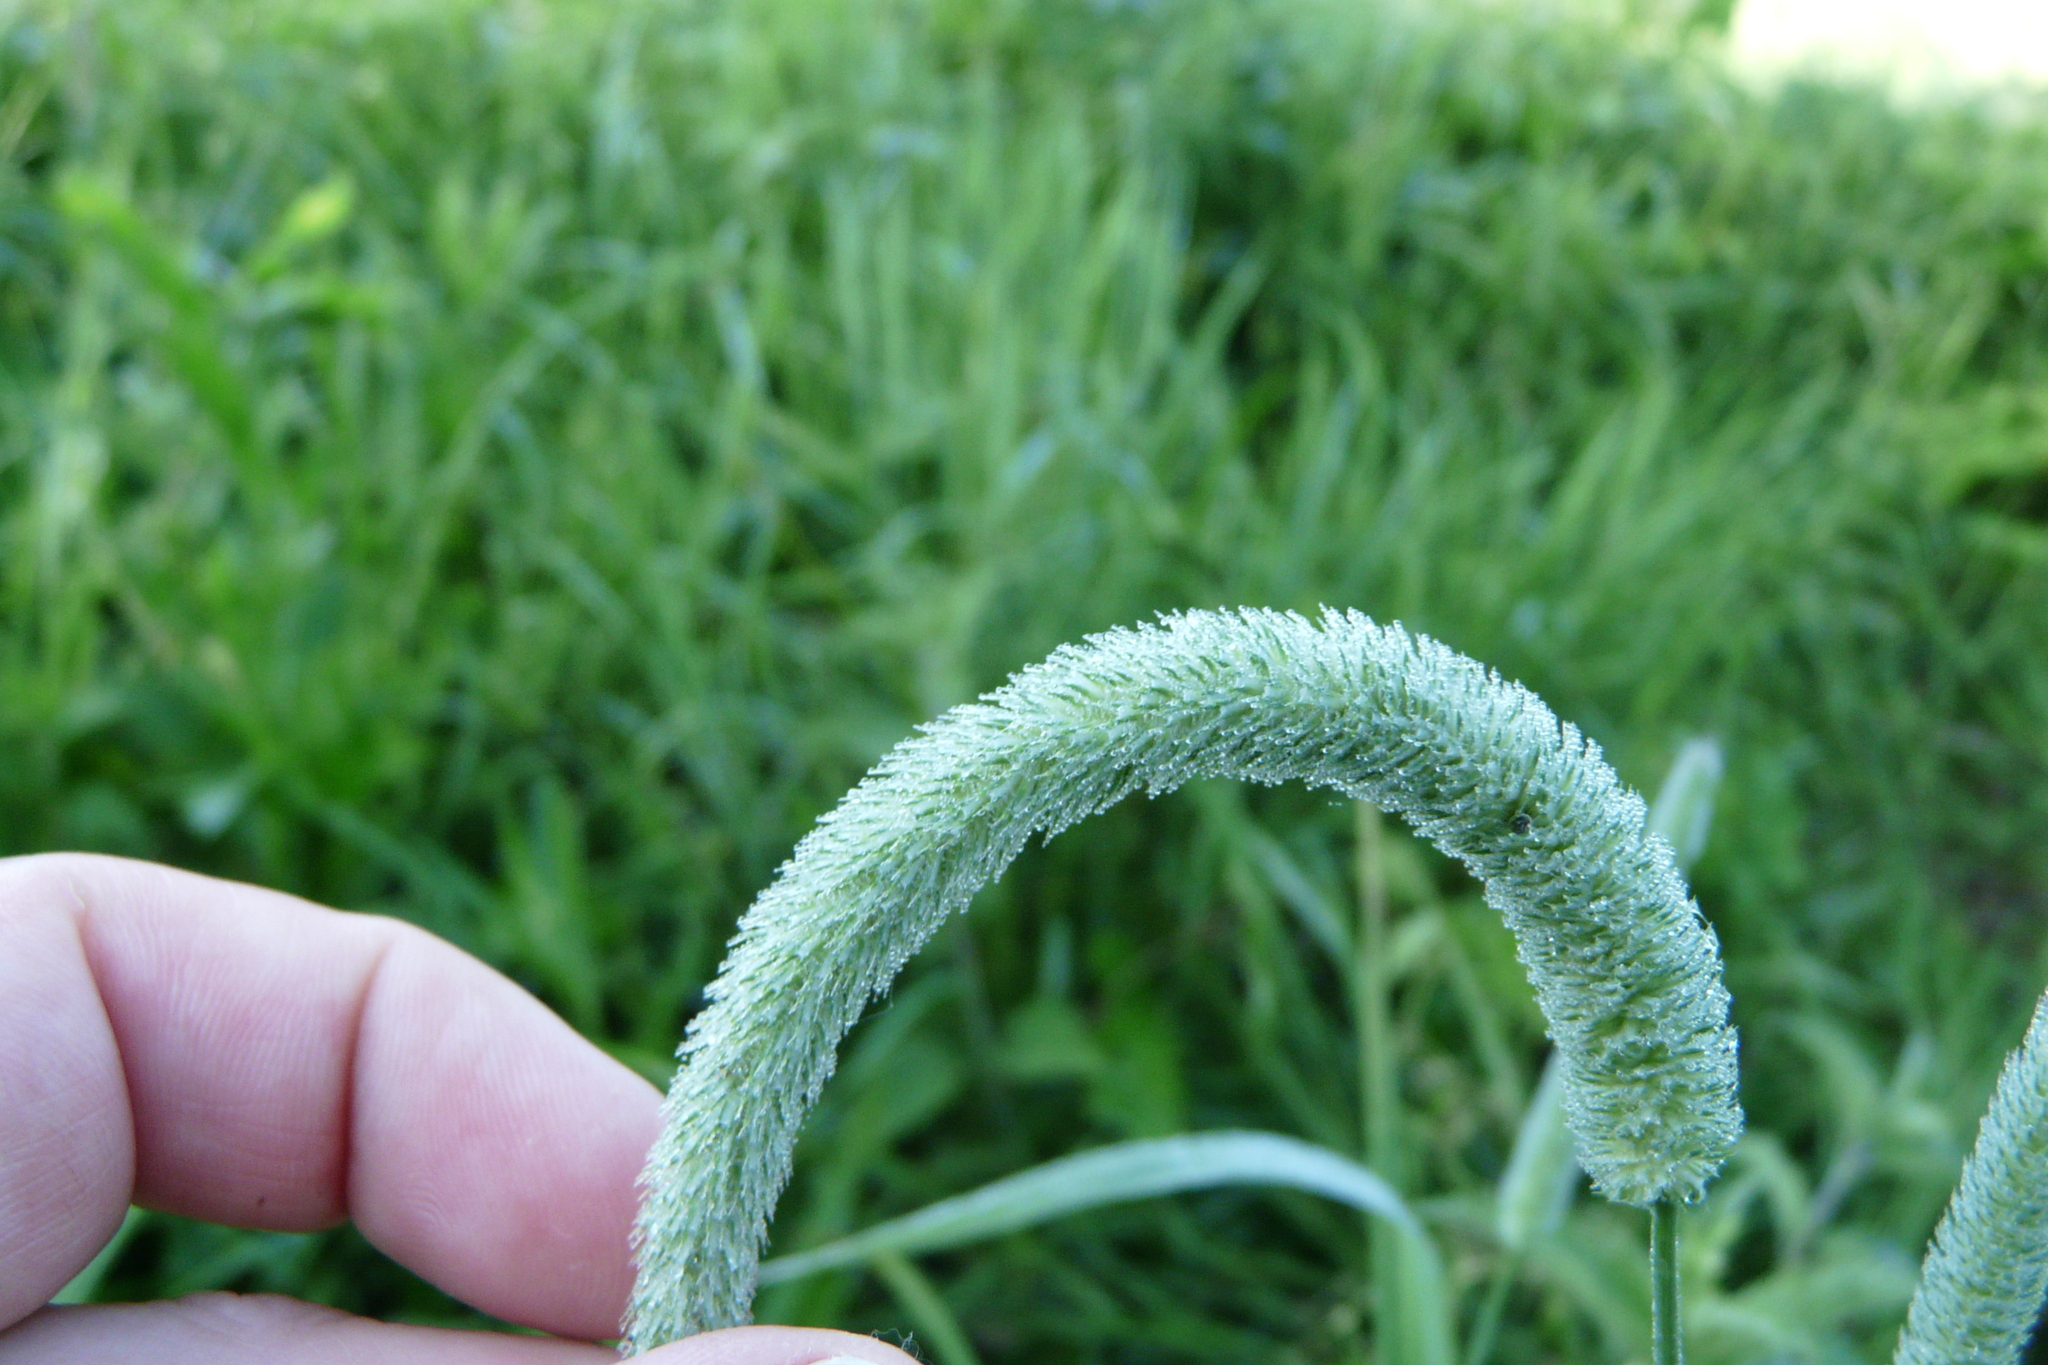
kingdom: Plantae
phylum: Tracheophyta
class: Liliopsida
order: Poales
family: Poaceae
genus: Phleum
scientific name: Phleum pratense
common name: Timothy grass
